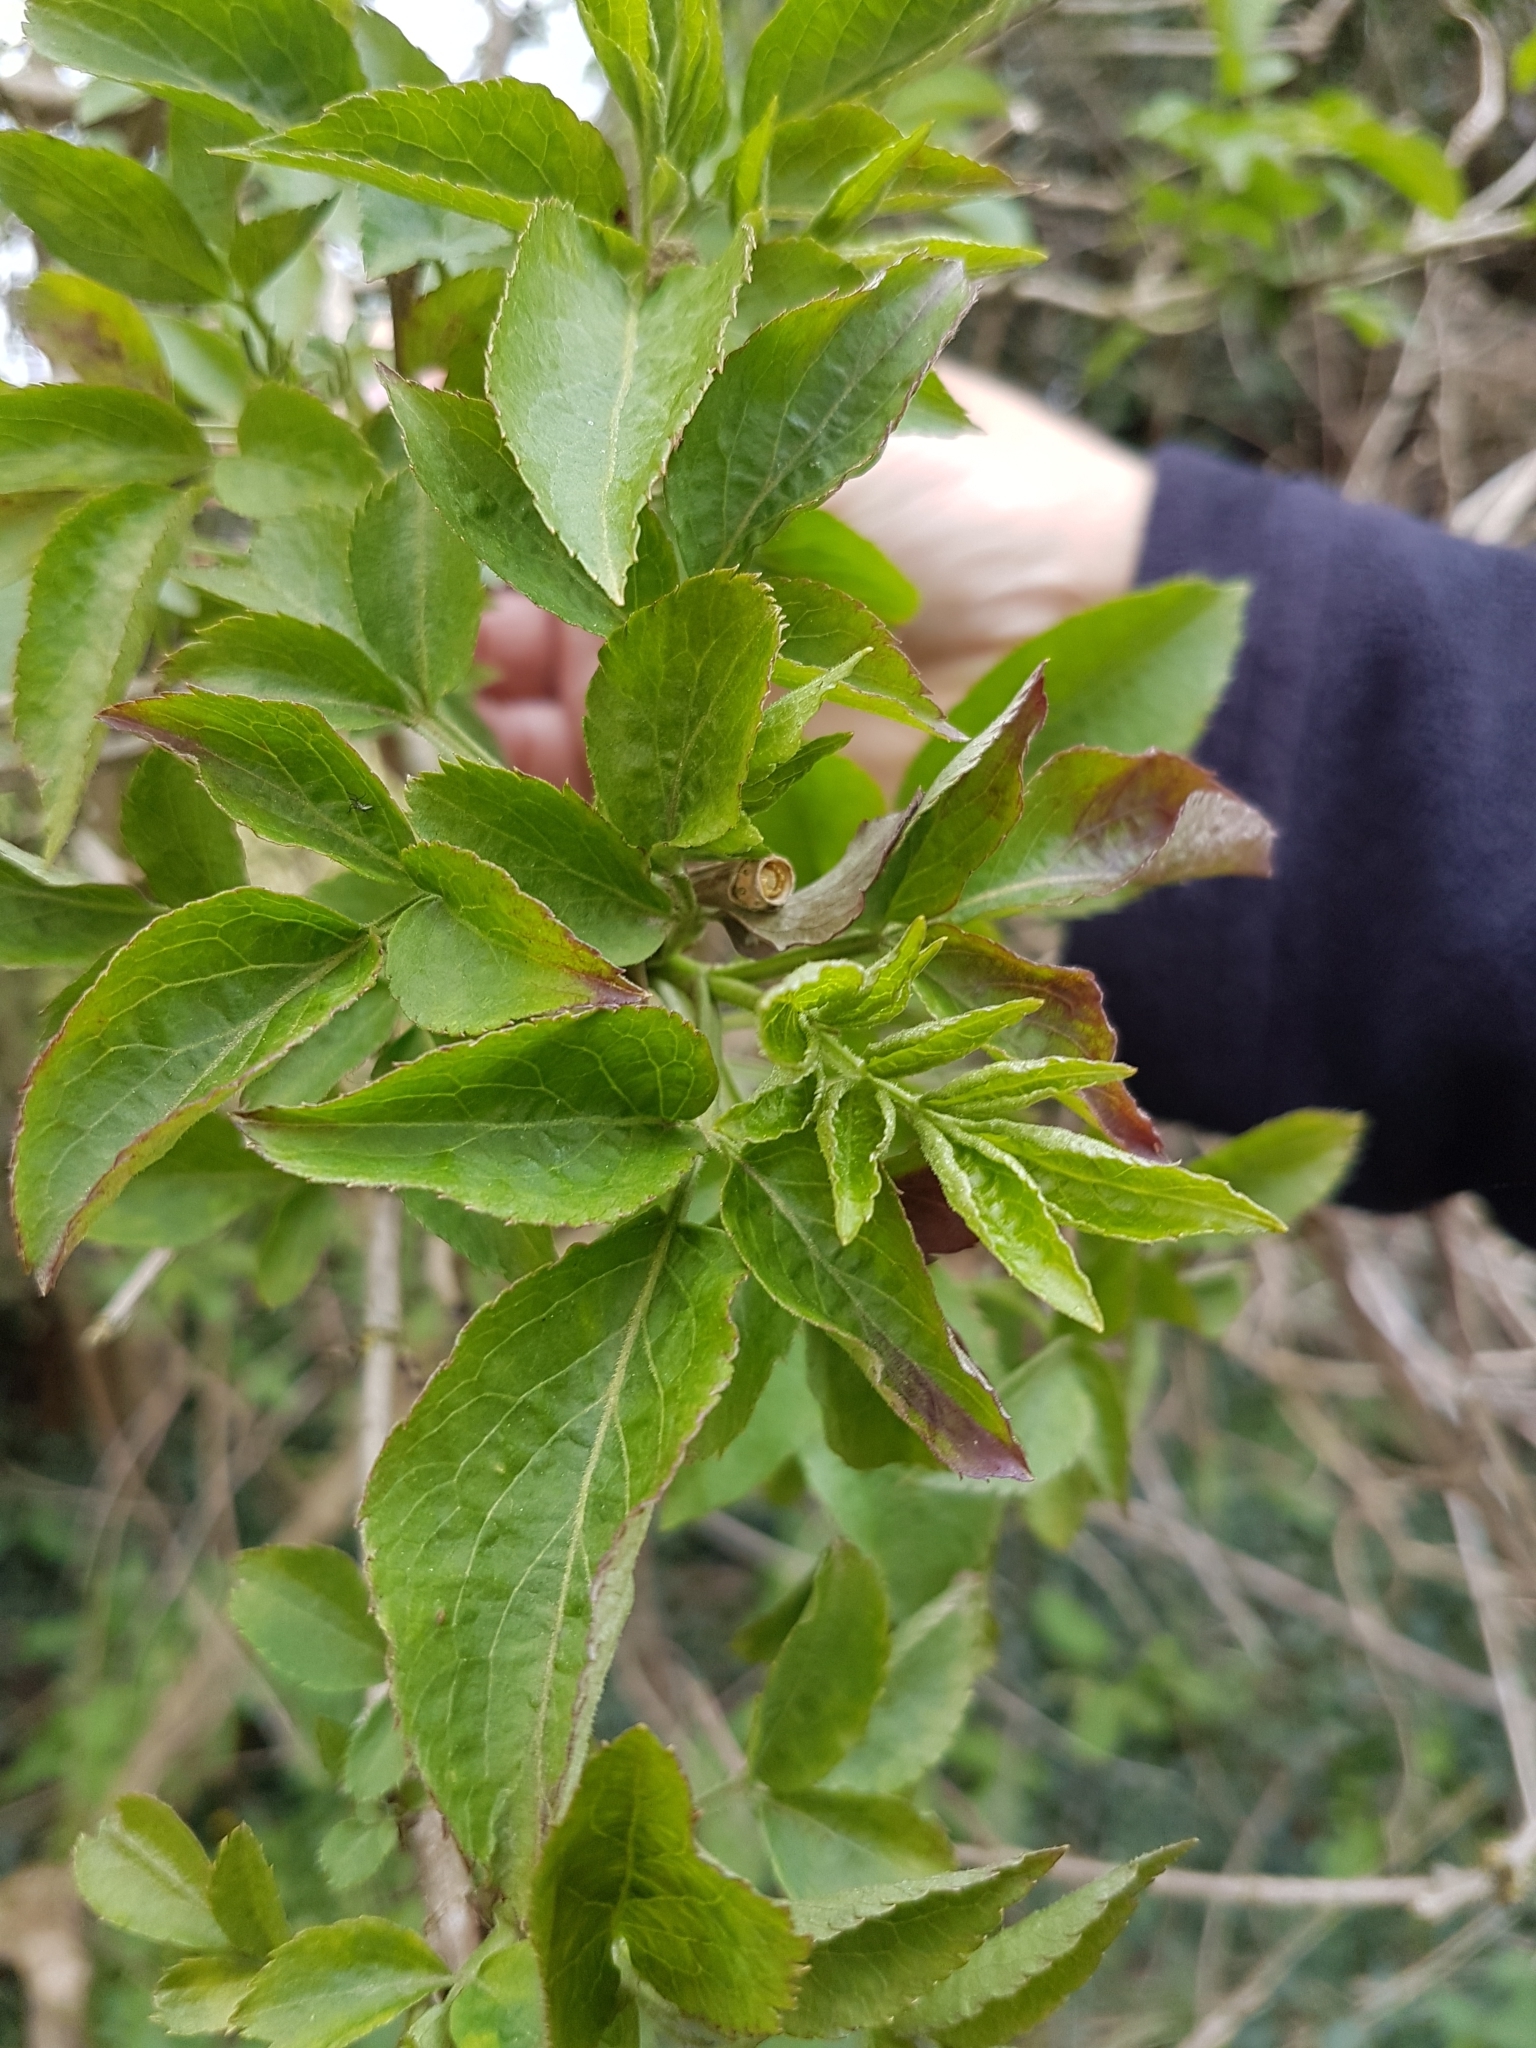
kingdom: Plantae
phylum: Tracheophyta
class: Magnoliopsida
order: Dipsacales
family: Viburnaceae
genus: Sambucus
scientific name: Sambucus nigra
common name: Elder
